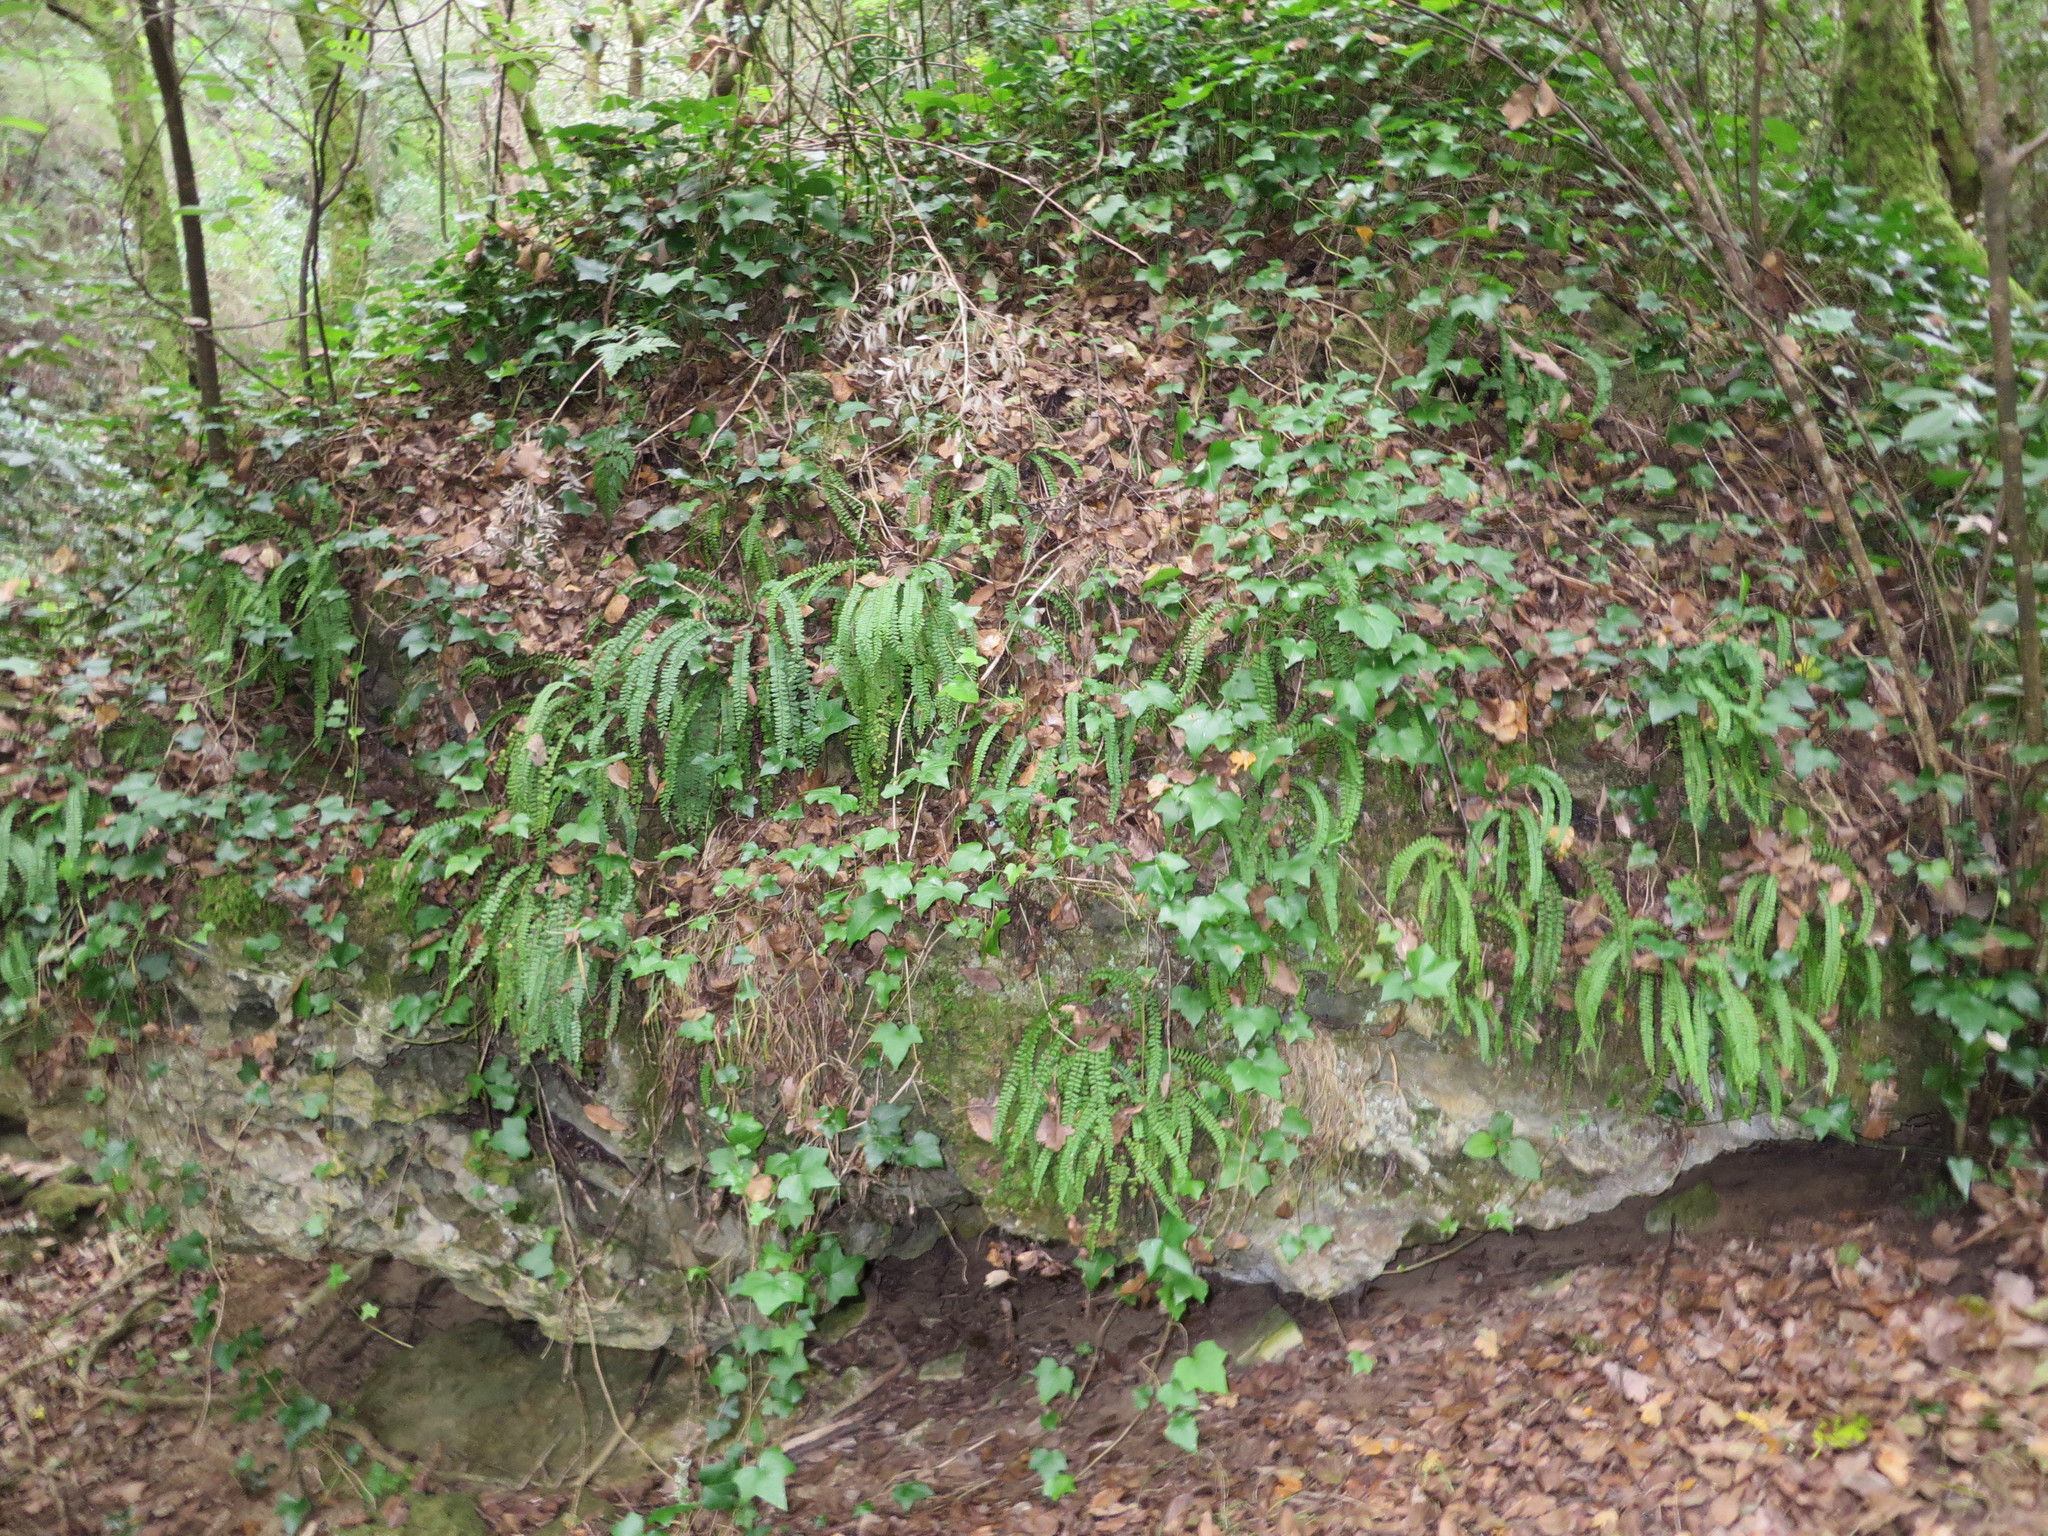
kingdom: Plantae
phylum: Tracheophyta
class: Polypodiopsida
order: Polypodiales
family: Aspleniaceae
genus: Asplenium
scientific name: Asplenium trichomanes
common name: Maidenhair spleenwort
